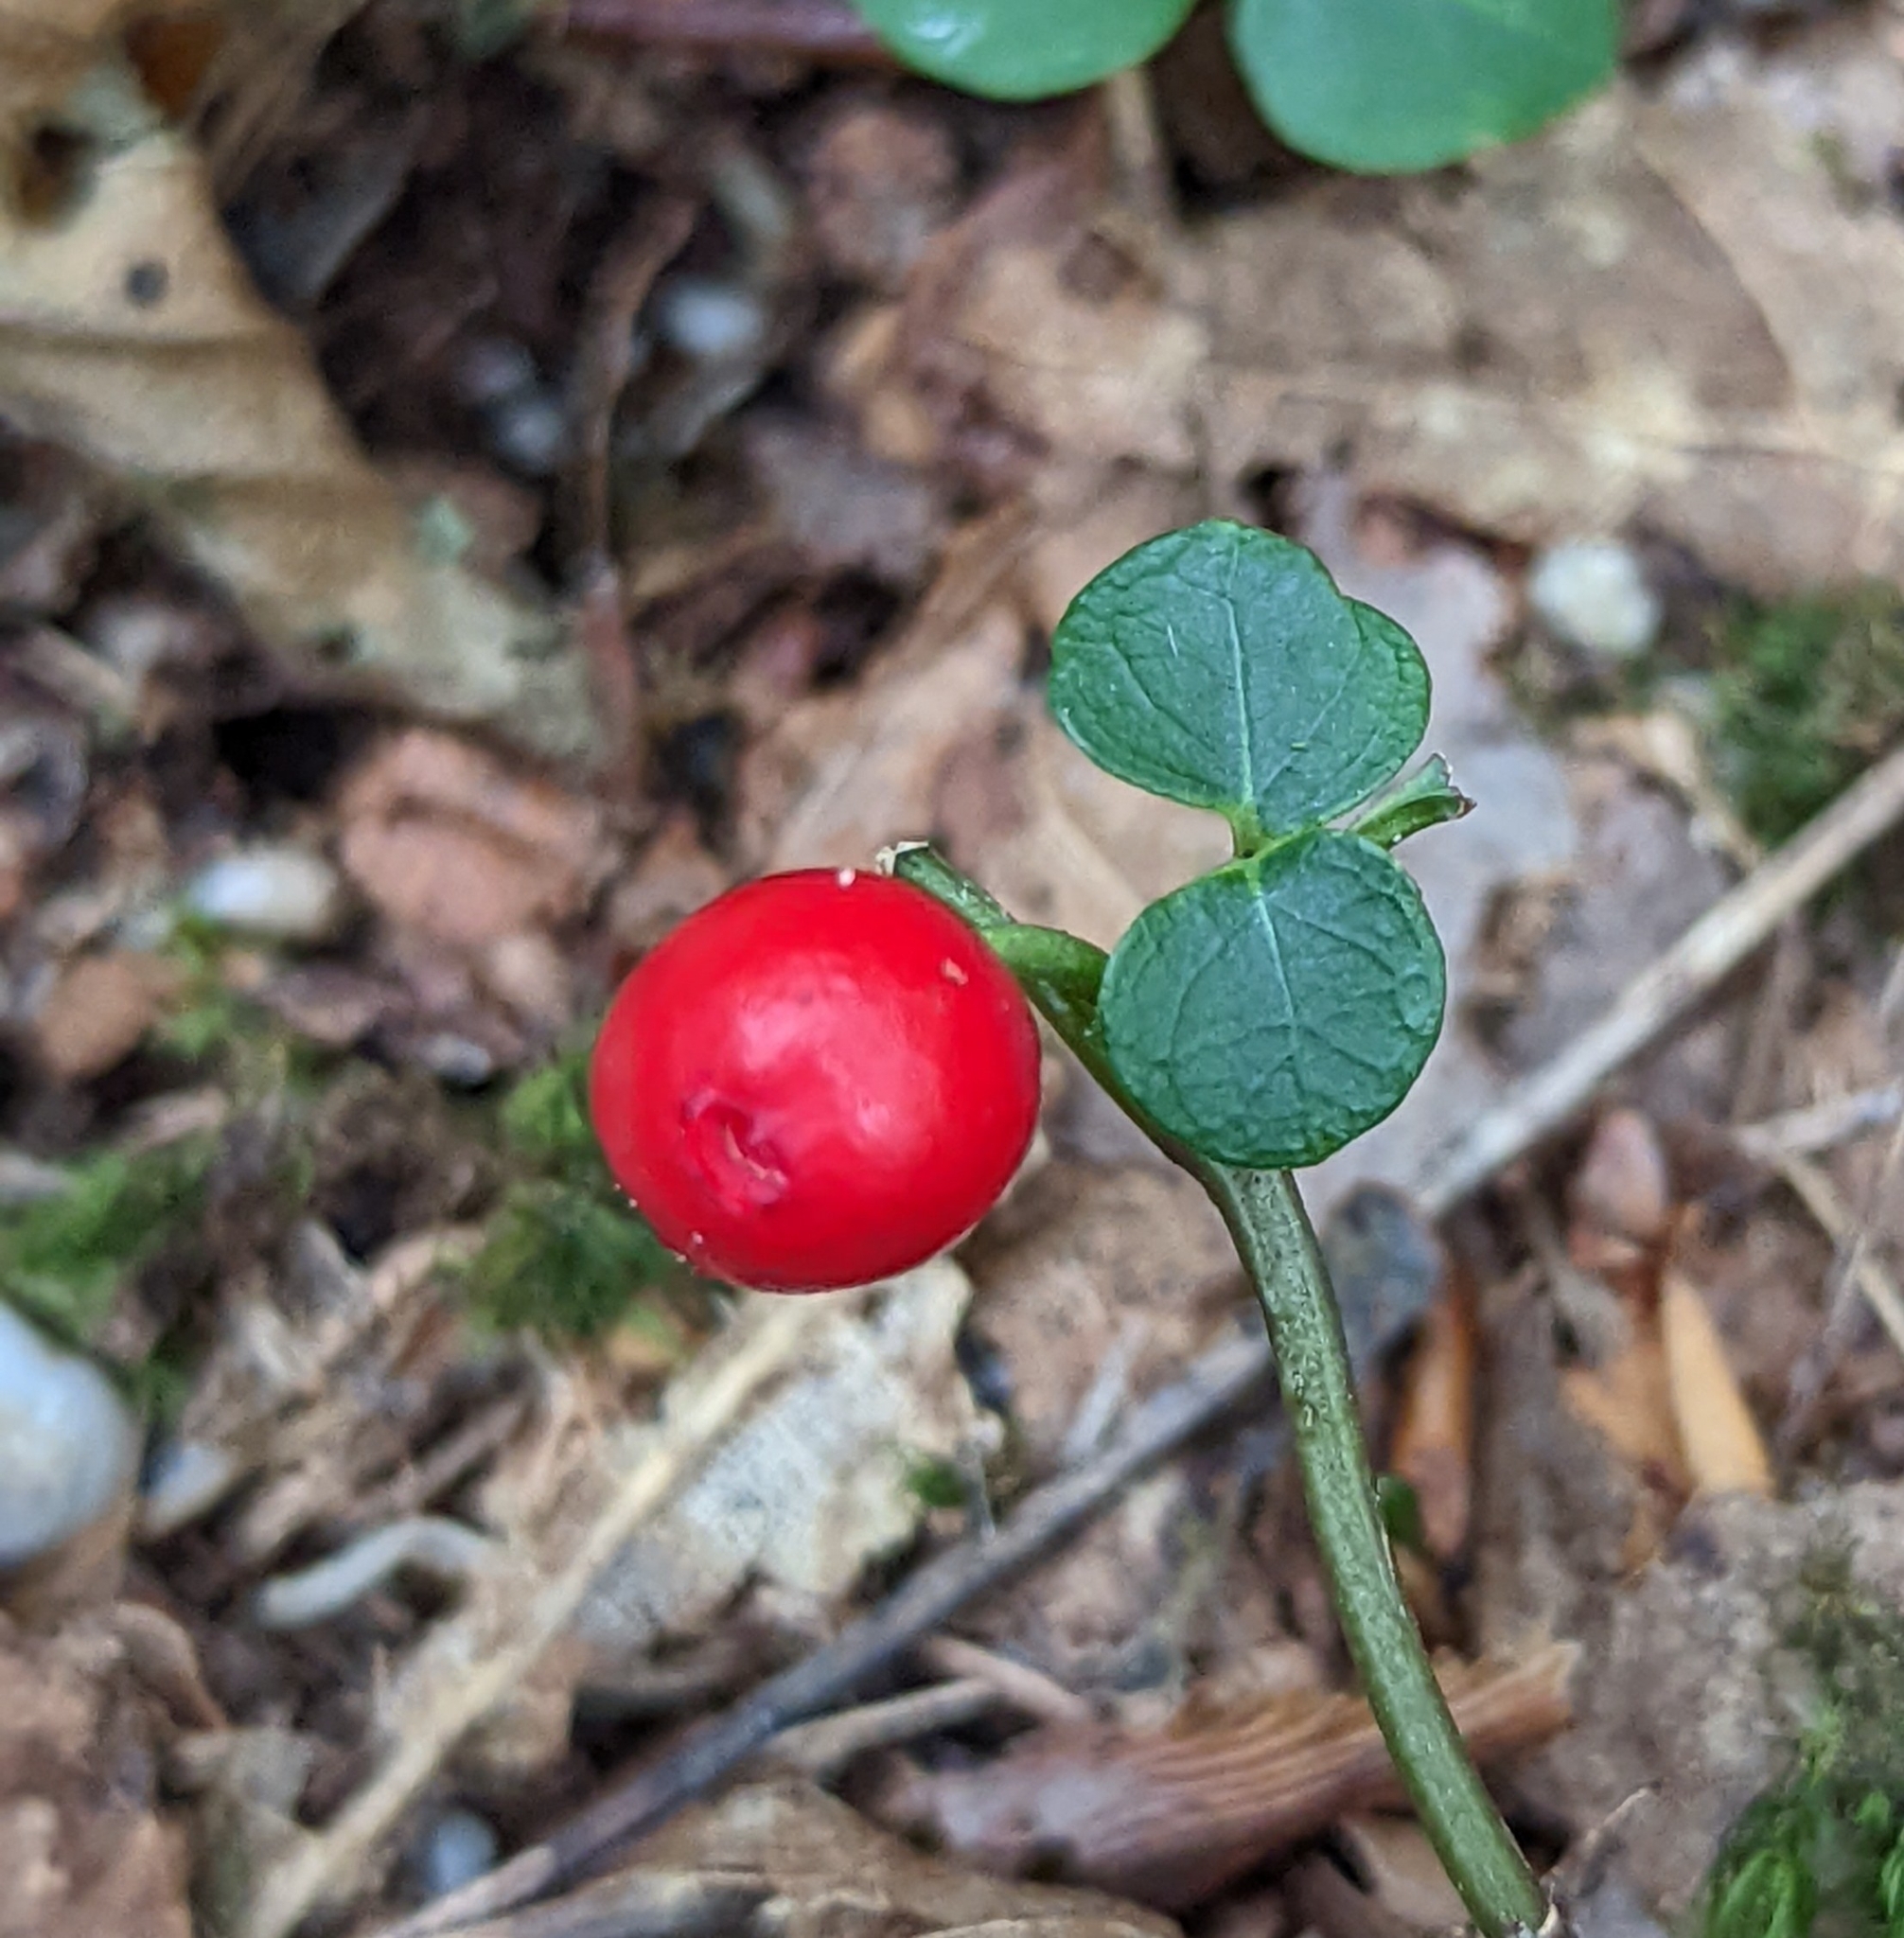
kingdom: Plantae
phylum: Tracheophyta
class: Magnoliopsida
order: Gentianales
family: Rubiaceae
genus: Mitchella
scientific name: Mitchella repens
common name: Partridge-berry
